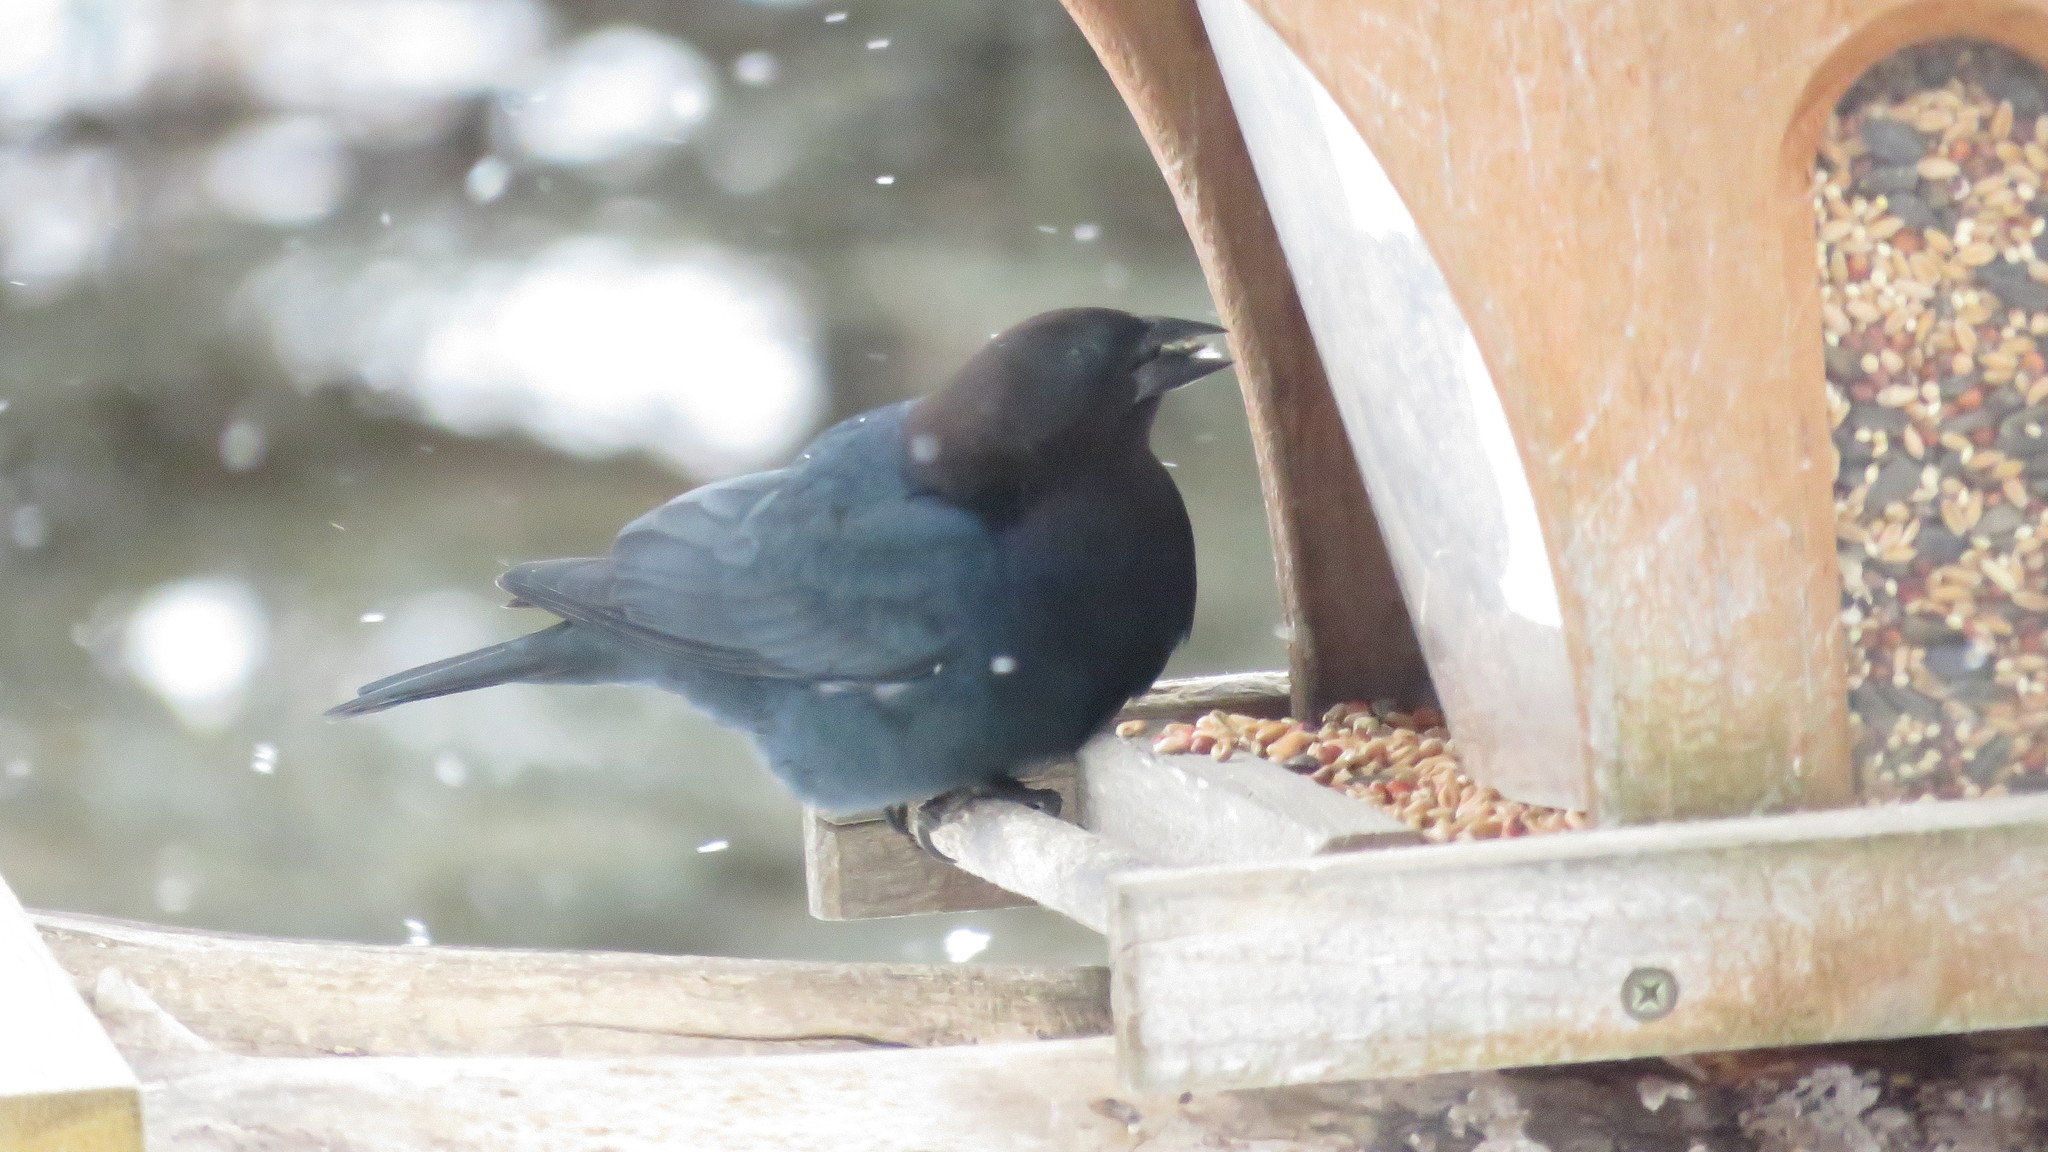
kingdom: Animalia
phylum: Chordata
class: Aves
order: Passeriformes
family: Icteridae
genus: Molothrus
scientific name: Molothrus ater
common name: Brown-headed cowbird
